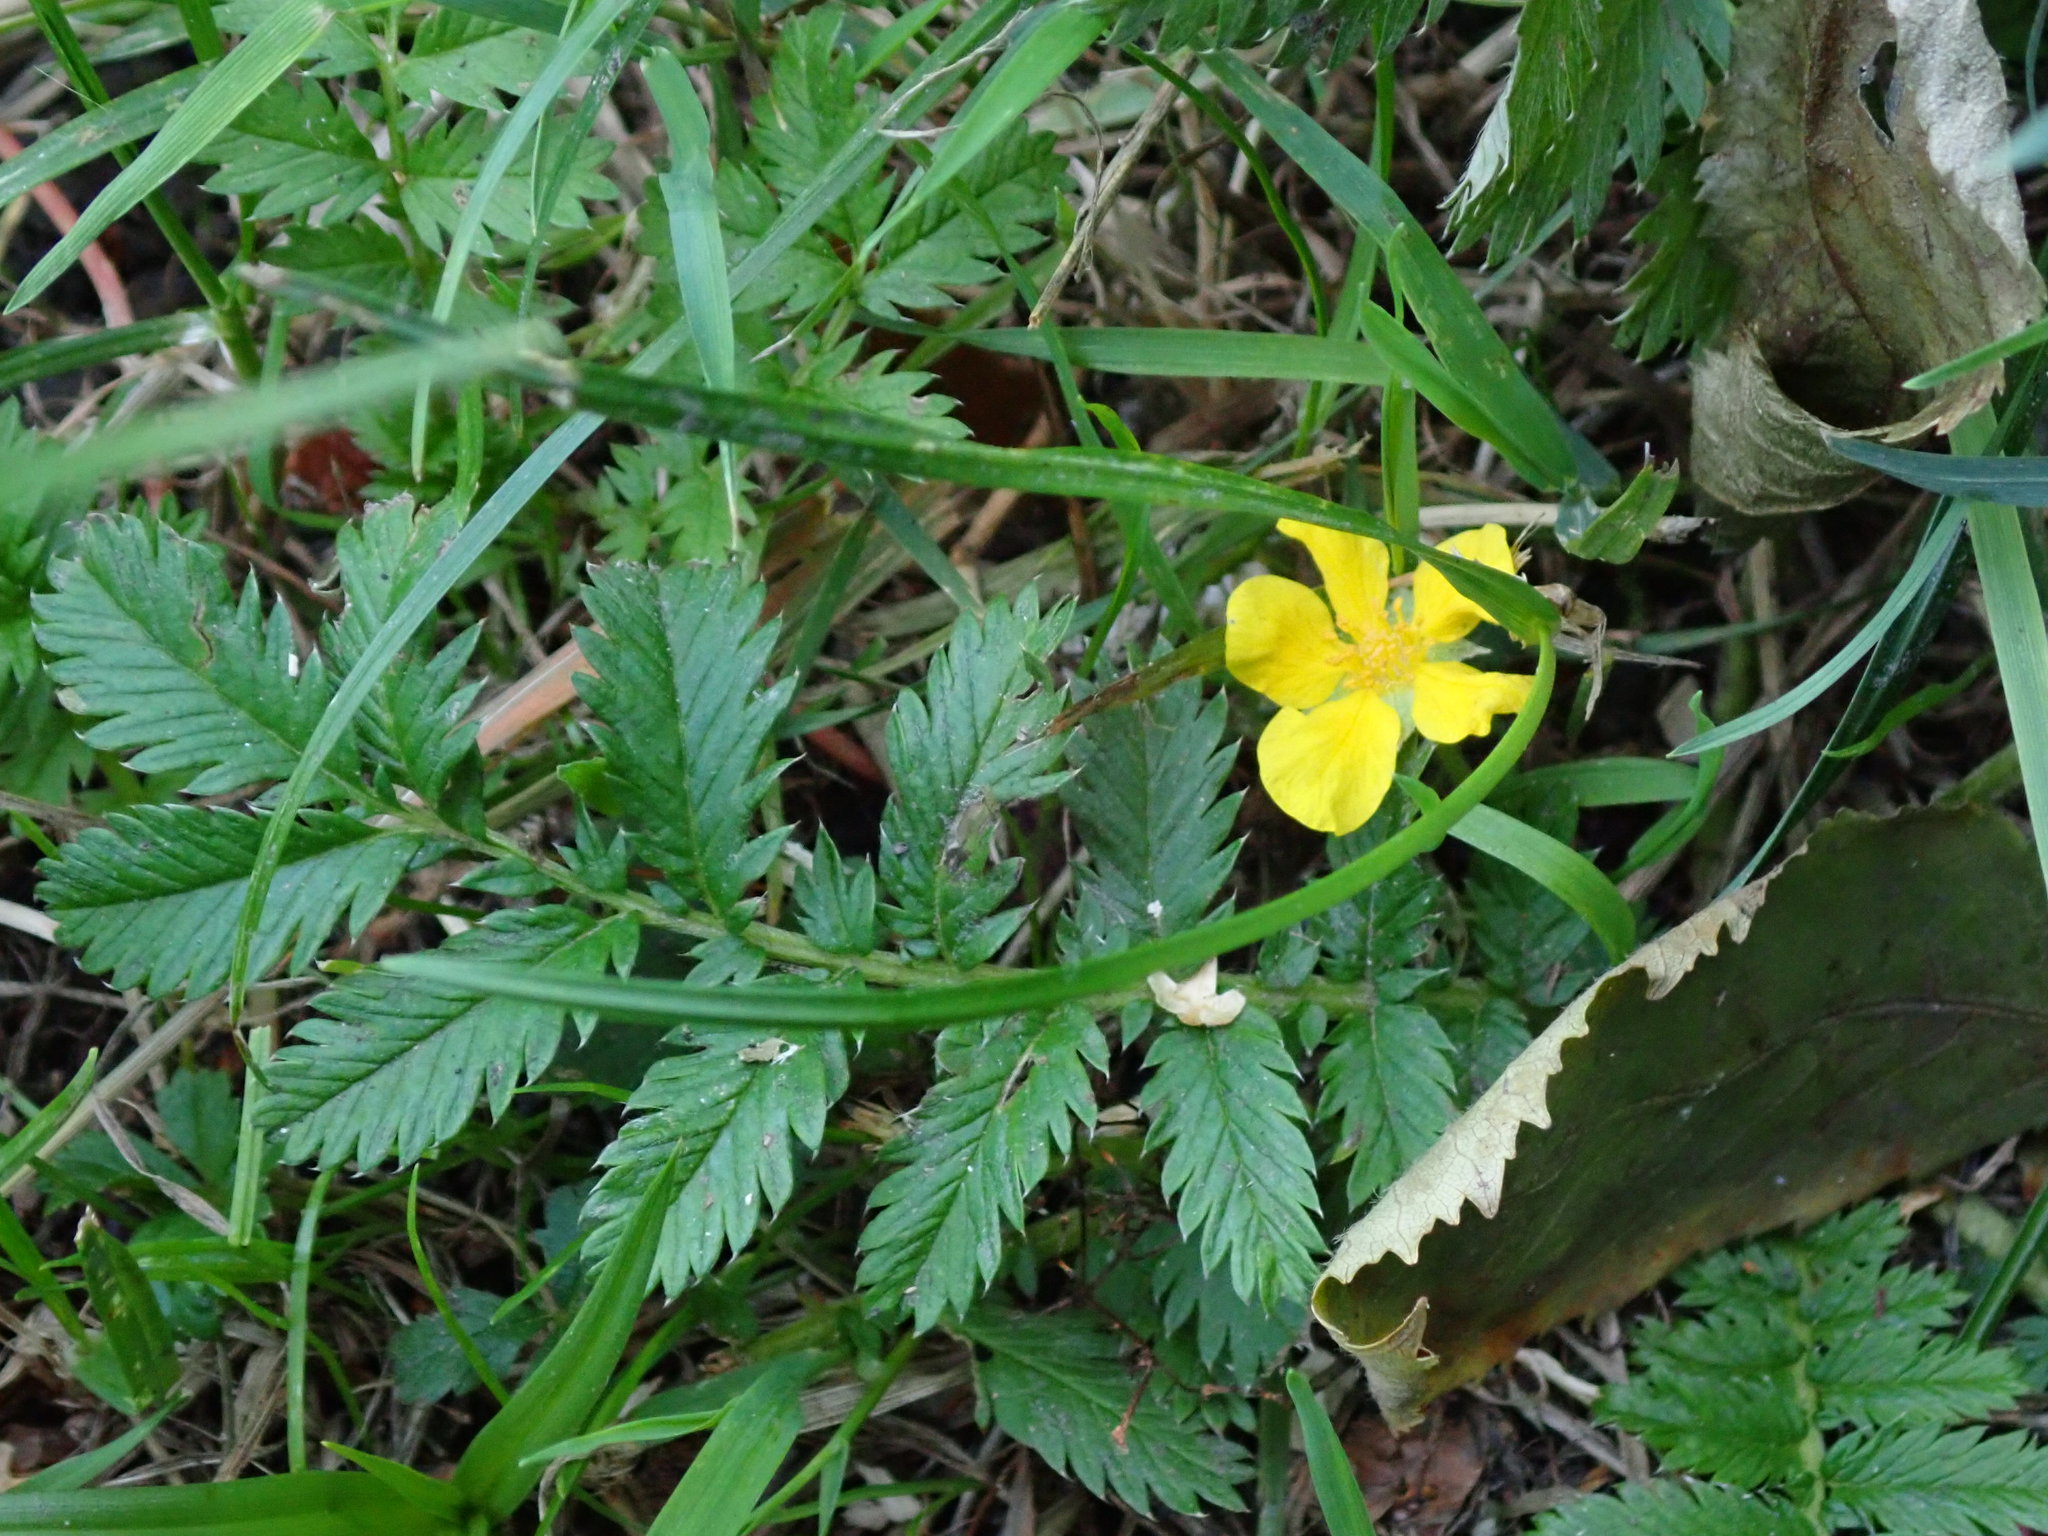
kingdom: Plantae
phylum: Tracheophyta
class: Magnoliopsida
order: Rosales
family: Rosaceae
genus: Argentina
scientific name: Argentina anserina
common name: Common silverweed
